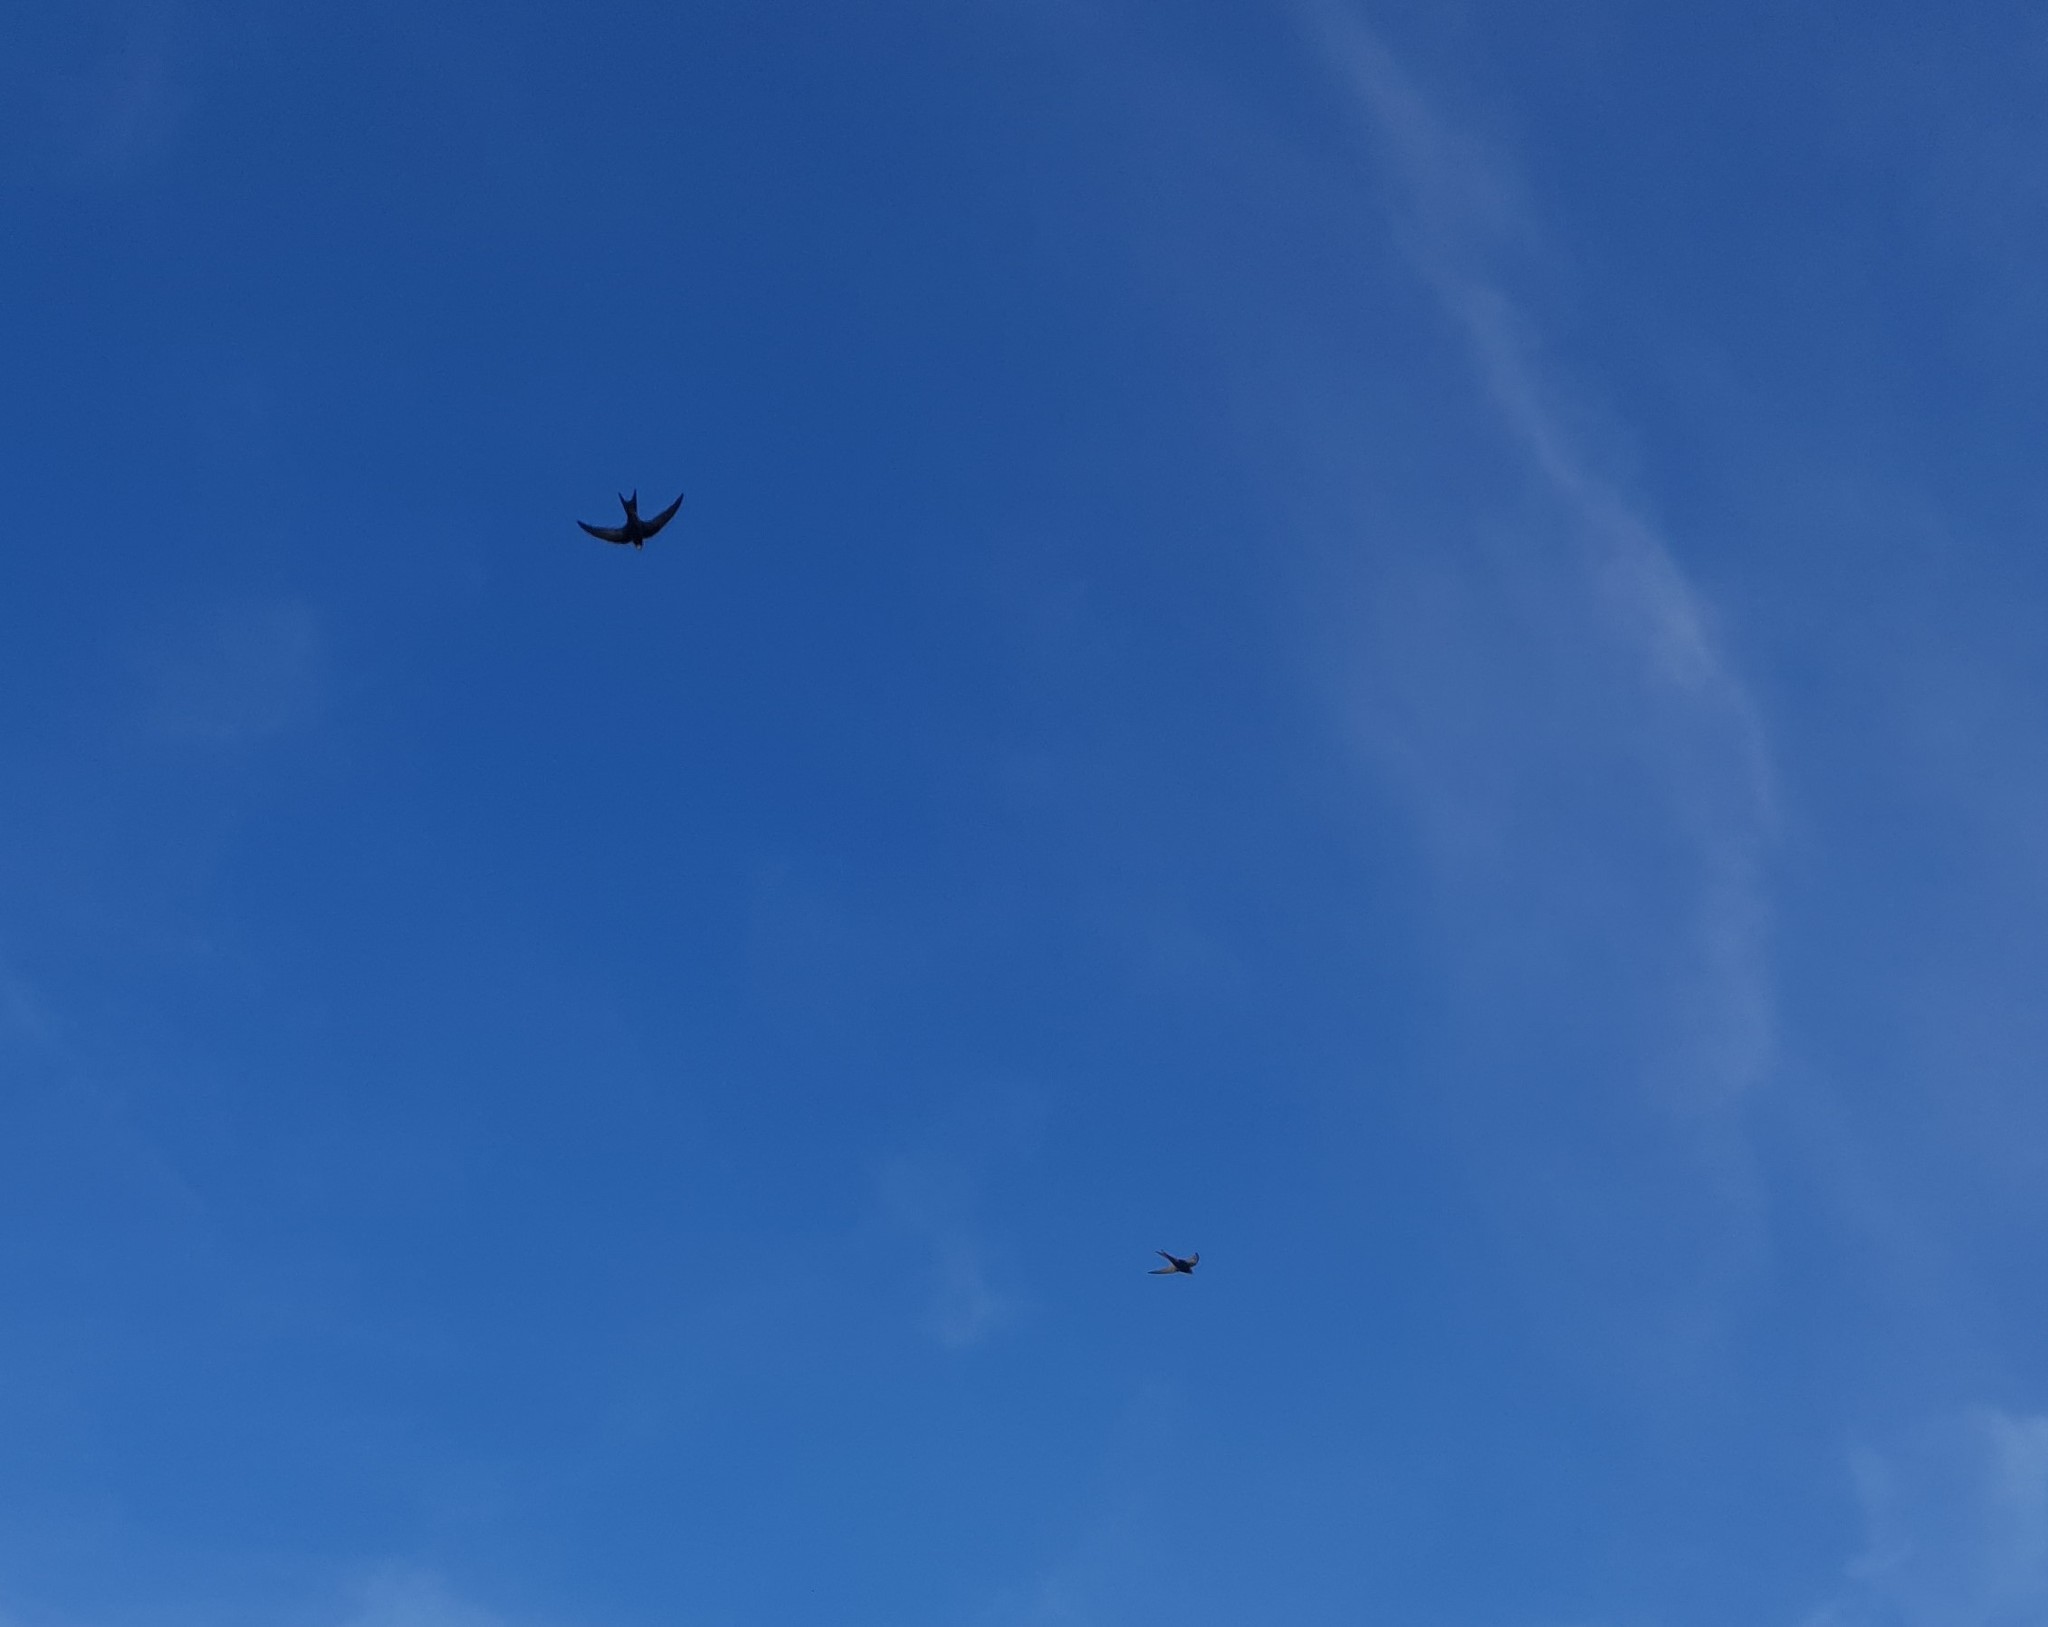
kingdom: Animalia
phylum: Chordata
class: Aves
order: Apodiformes
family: Apodidae
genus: Apus
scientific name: Apus apus
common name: Common swift
